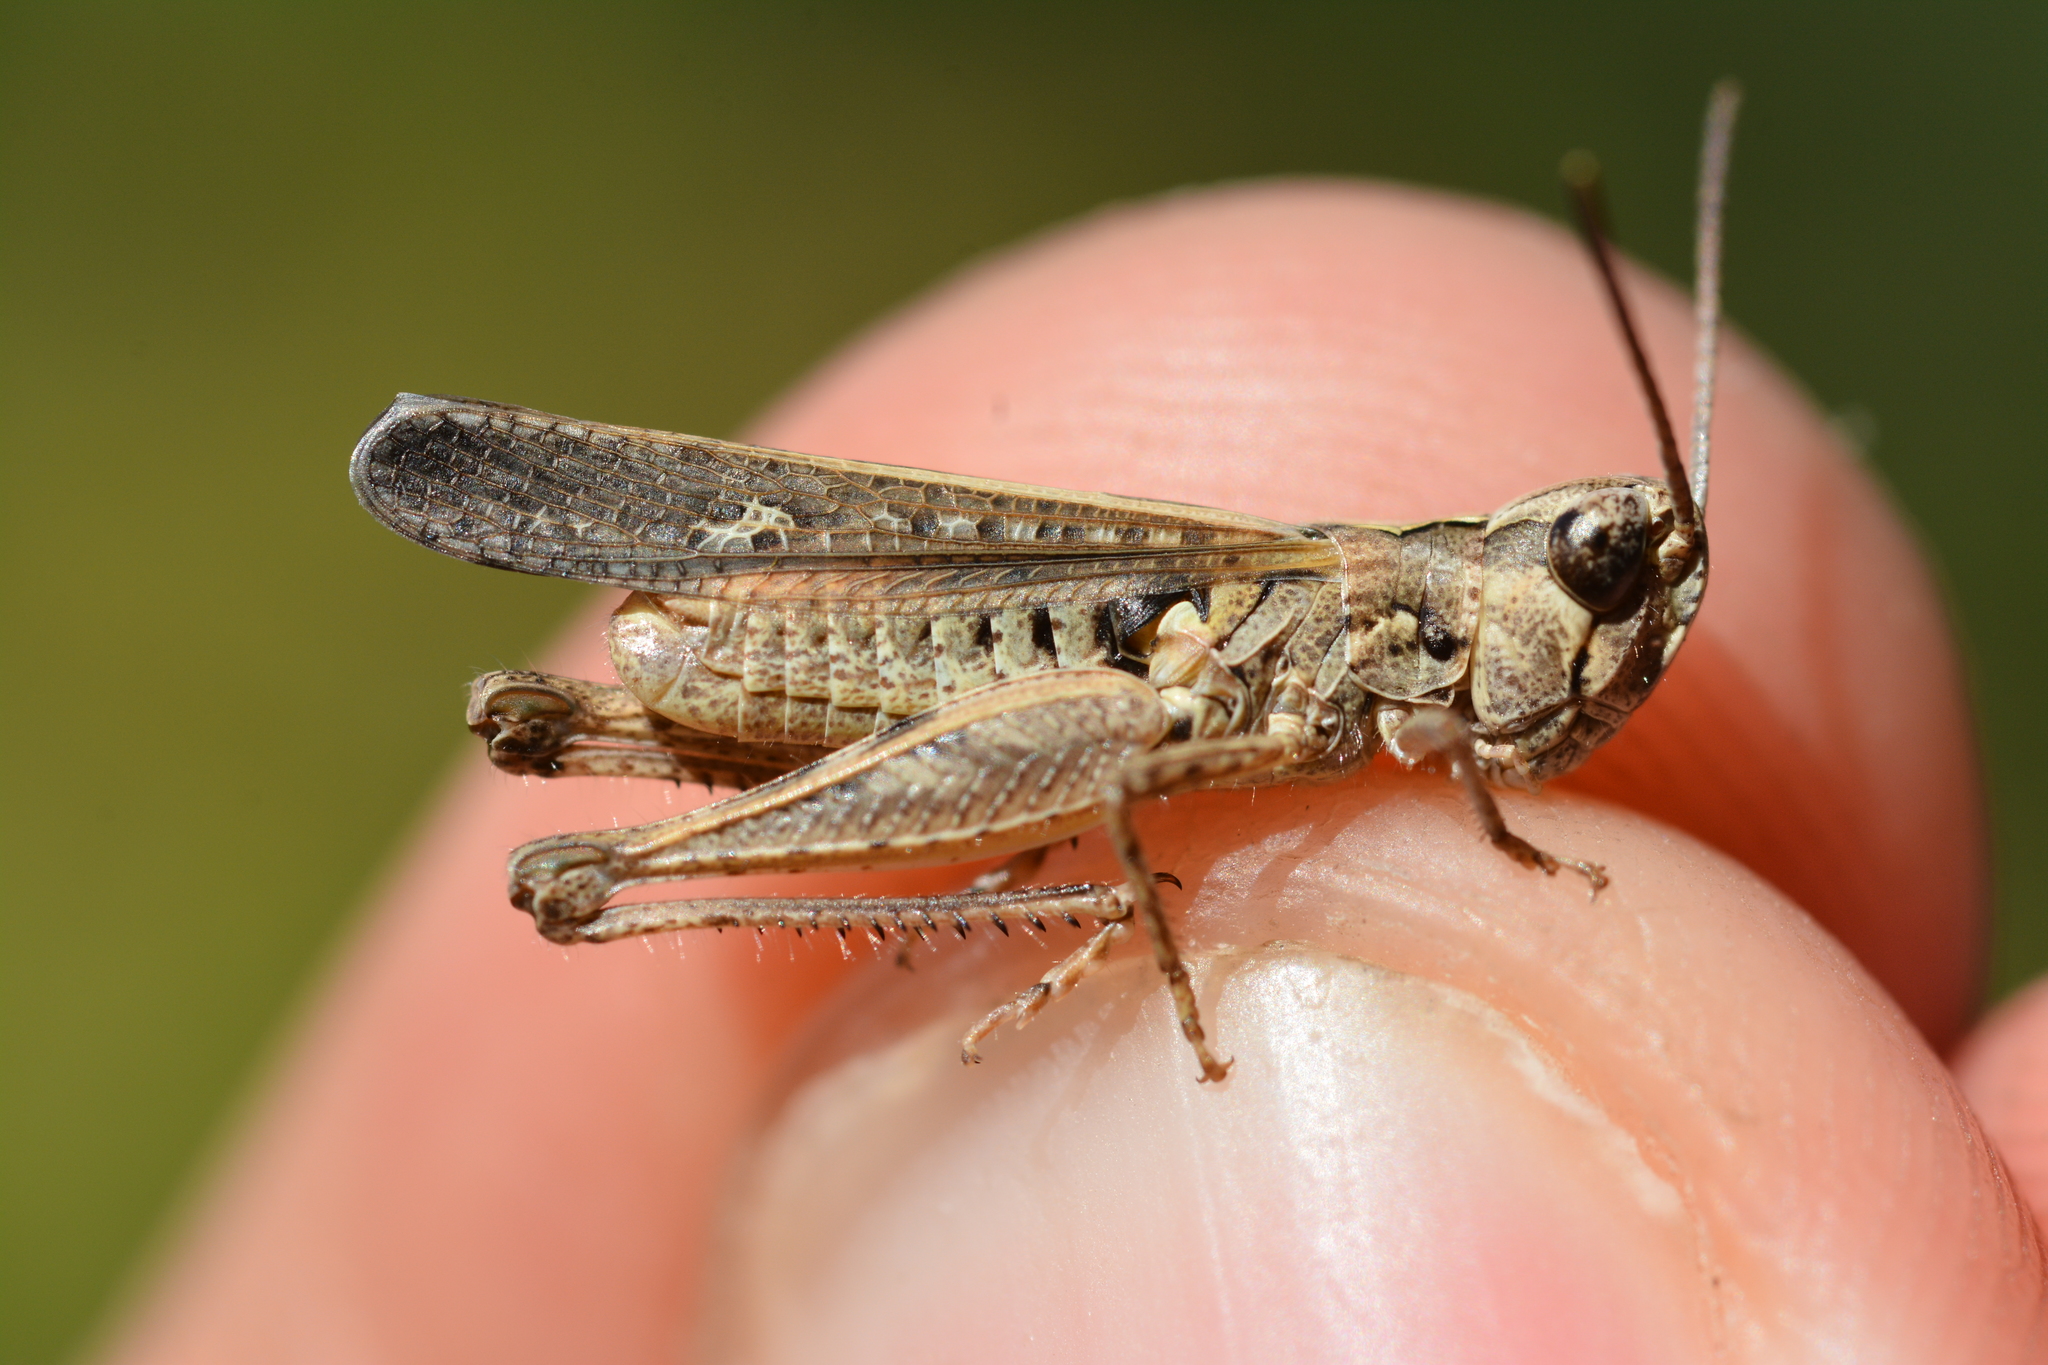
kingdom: Animalia
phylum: Arthropoda
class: Insecta
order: Orthoptera
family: Acrididae
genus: Omocestus
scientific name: Omocestus raymondi
